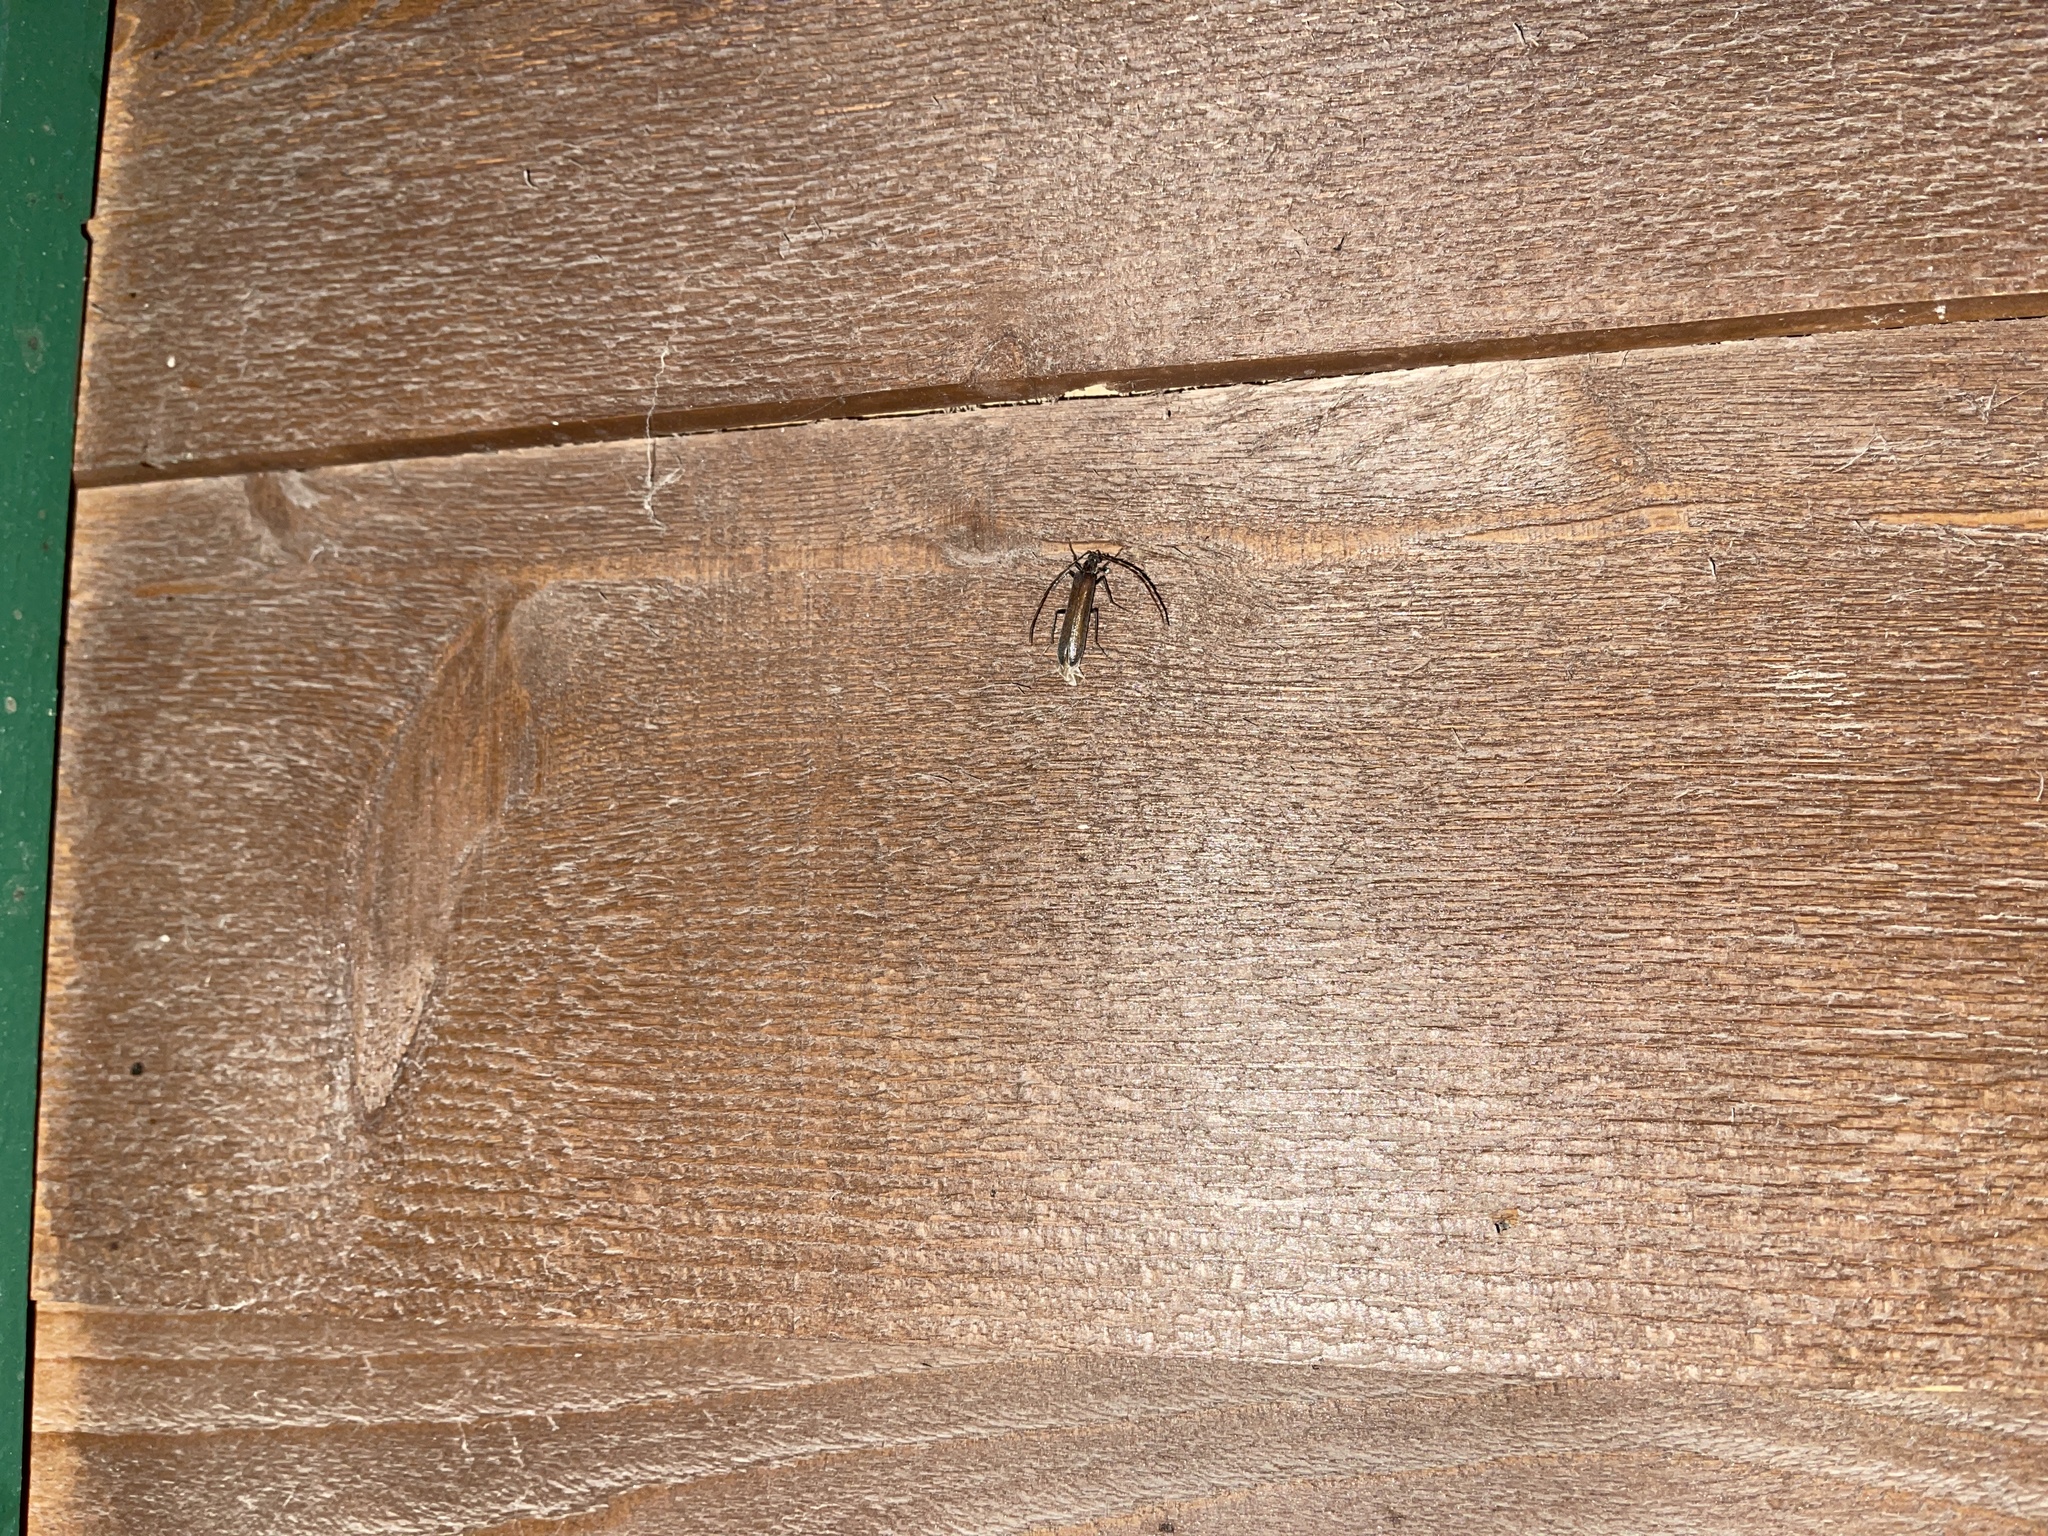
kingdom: Animalia
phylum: Arthropoda
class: Insecta
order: Coleoptera
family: Oedemeridae
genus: Calopus
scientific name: Calopus angustus
